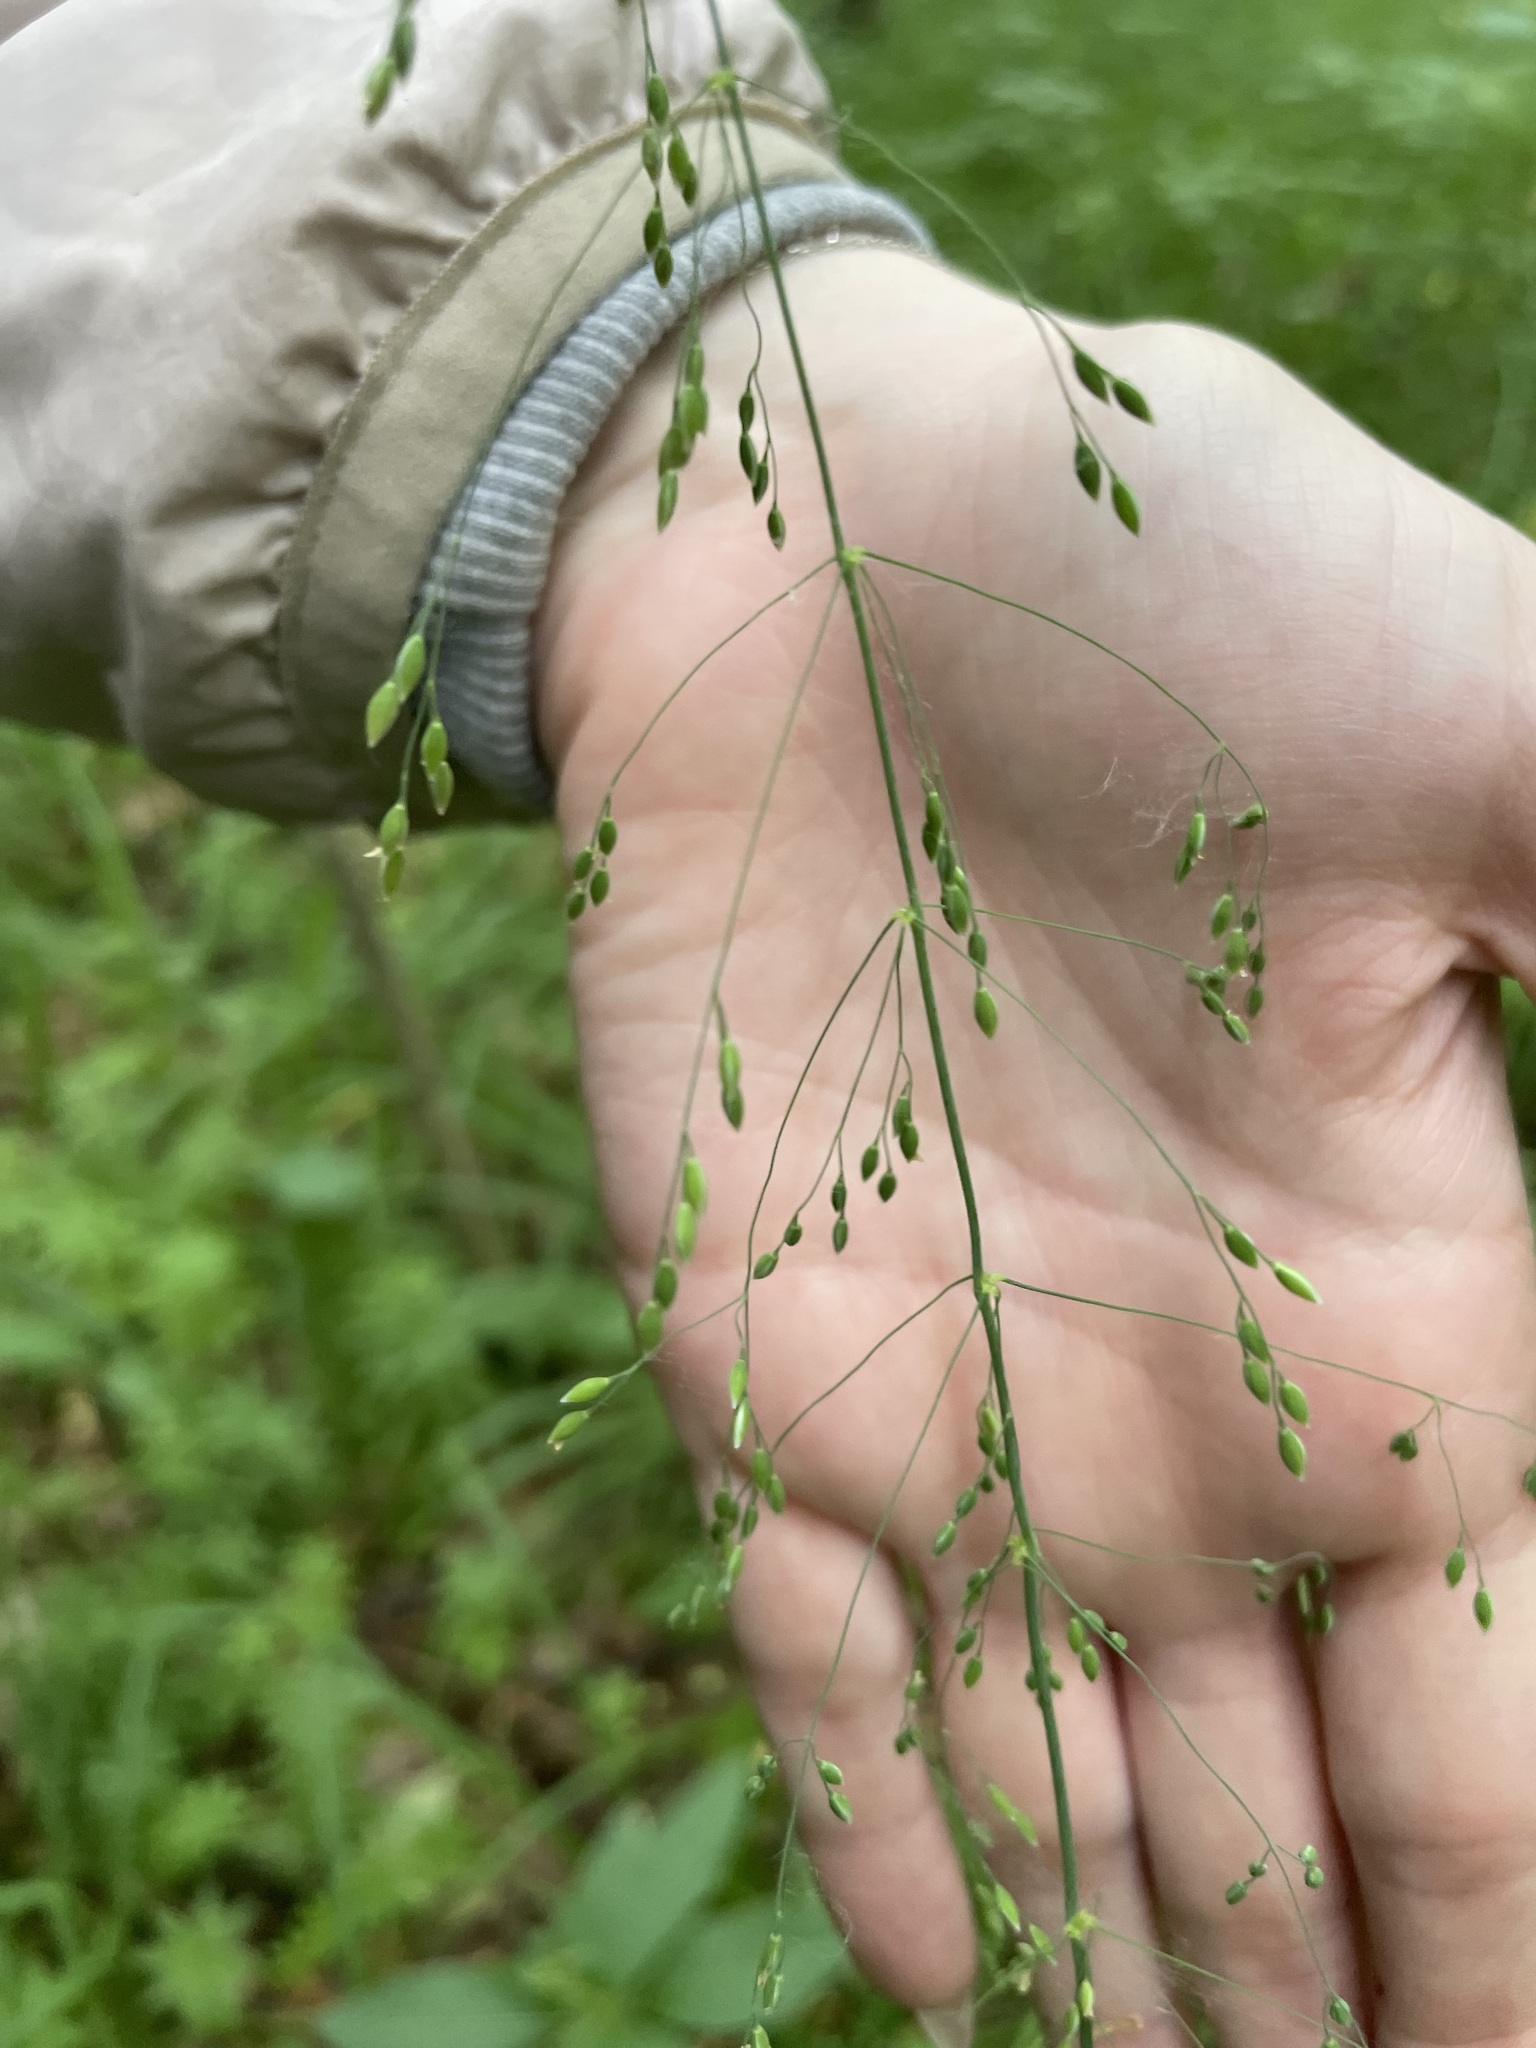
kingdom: Plantae
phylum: Tracheophyta
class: Liliopsida
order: Poales
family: Poaceae
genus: Milium
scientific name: Milium effusum
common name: Wood millet
